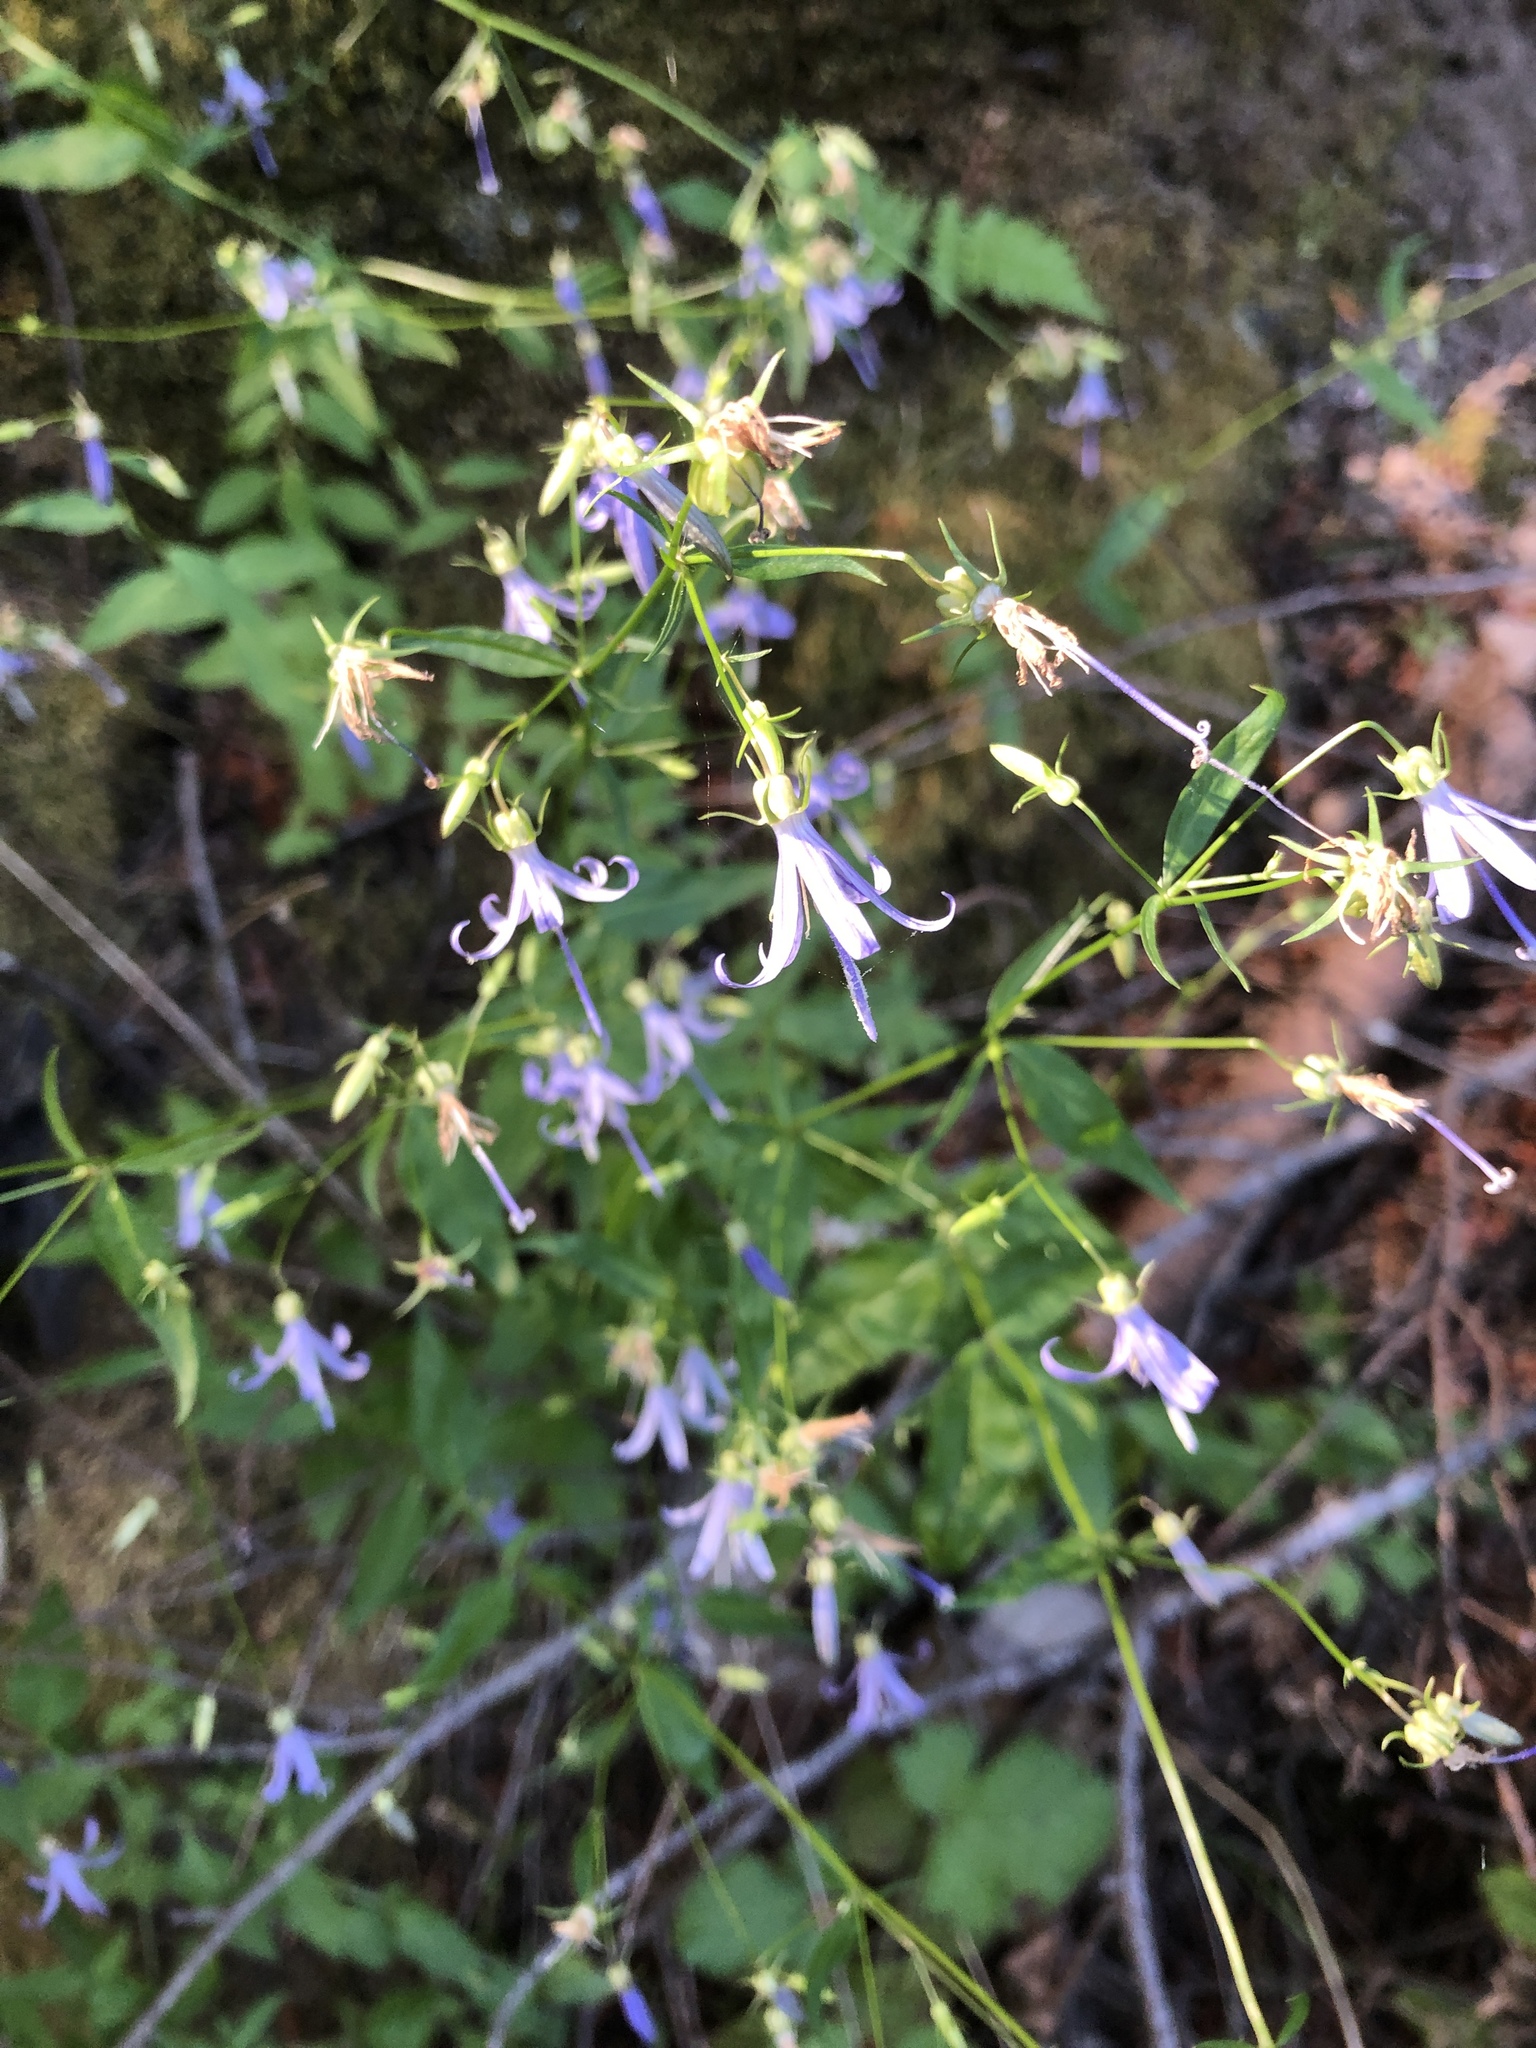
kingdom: Plantae
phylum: Tracheophyta
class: Magnoliopsida
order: Asterales
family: Campanulaceae
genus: Smithiastrum
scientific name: Smithiastrum prenanthoides
